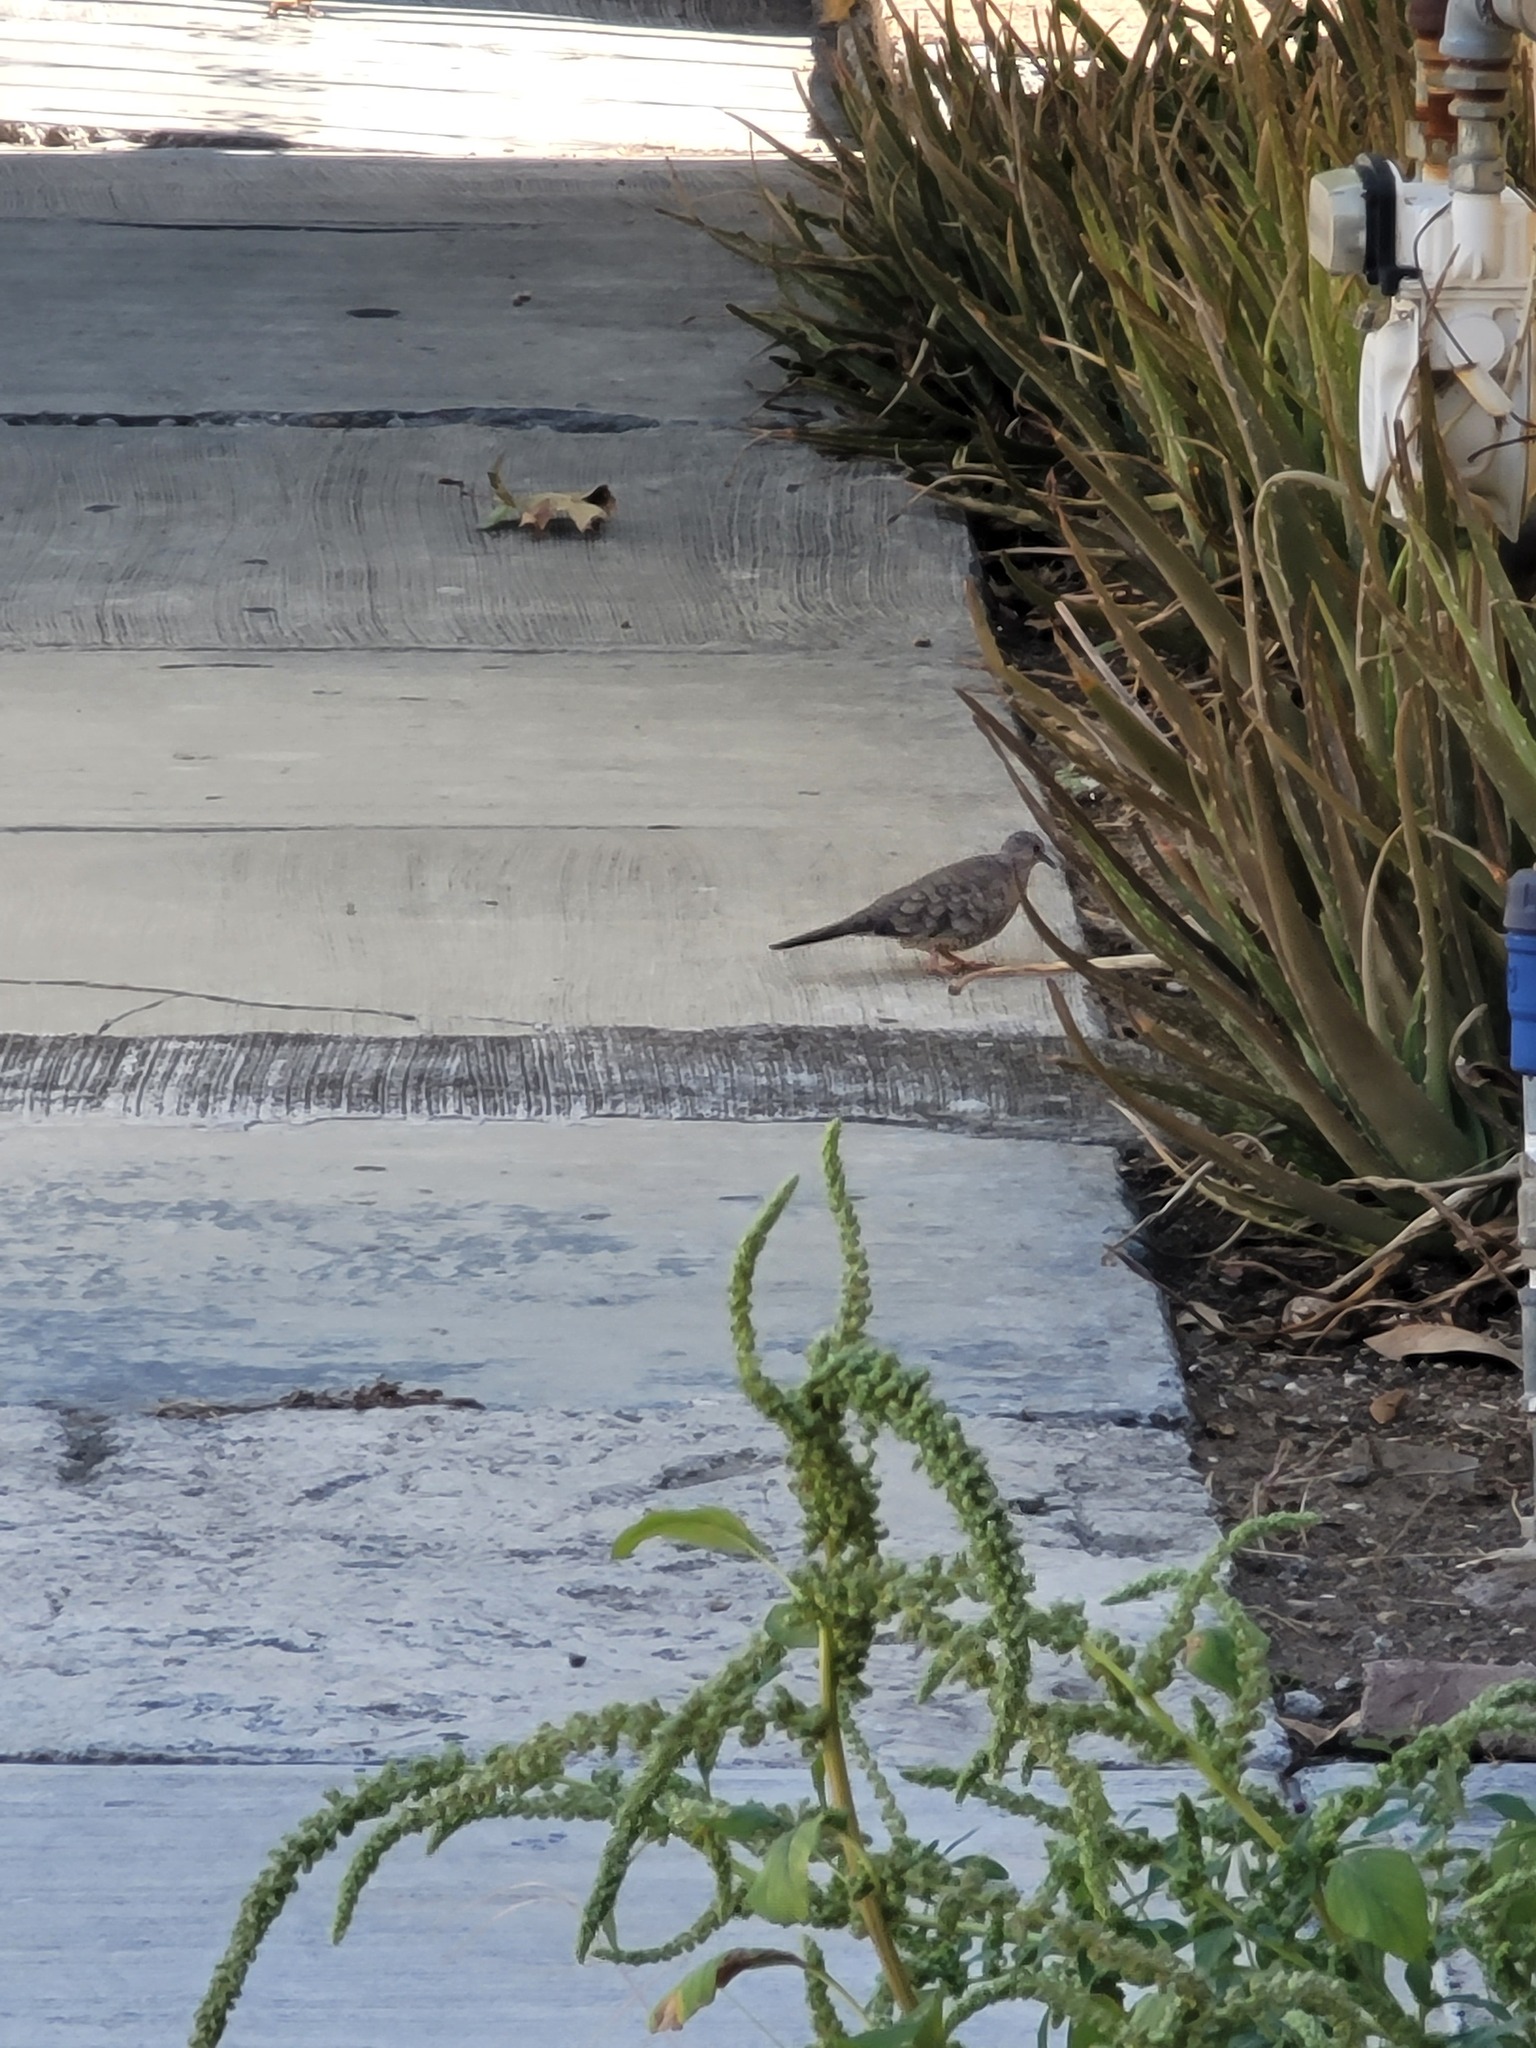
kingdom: Animalia
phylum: Chordata
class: Aves
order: Columbiformes
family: Columbidae
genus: Columbina
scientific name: Columbina inca
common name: Inca dove
